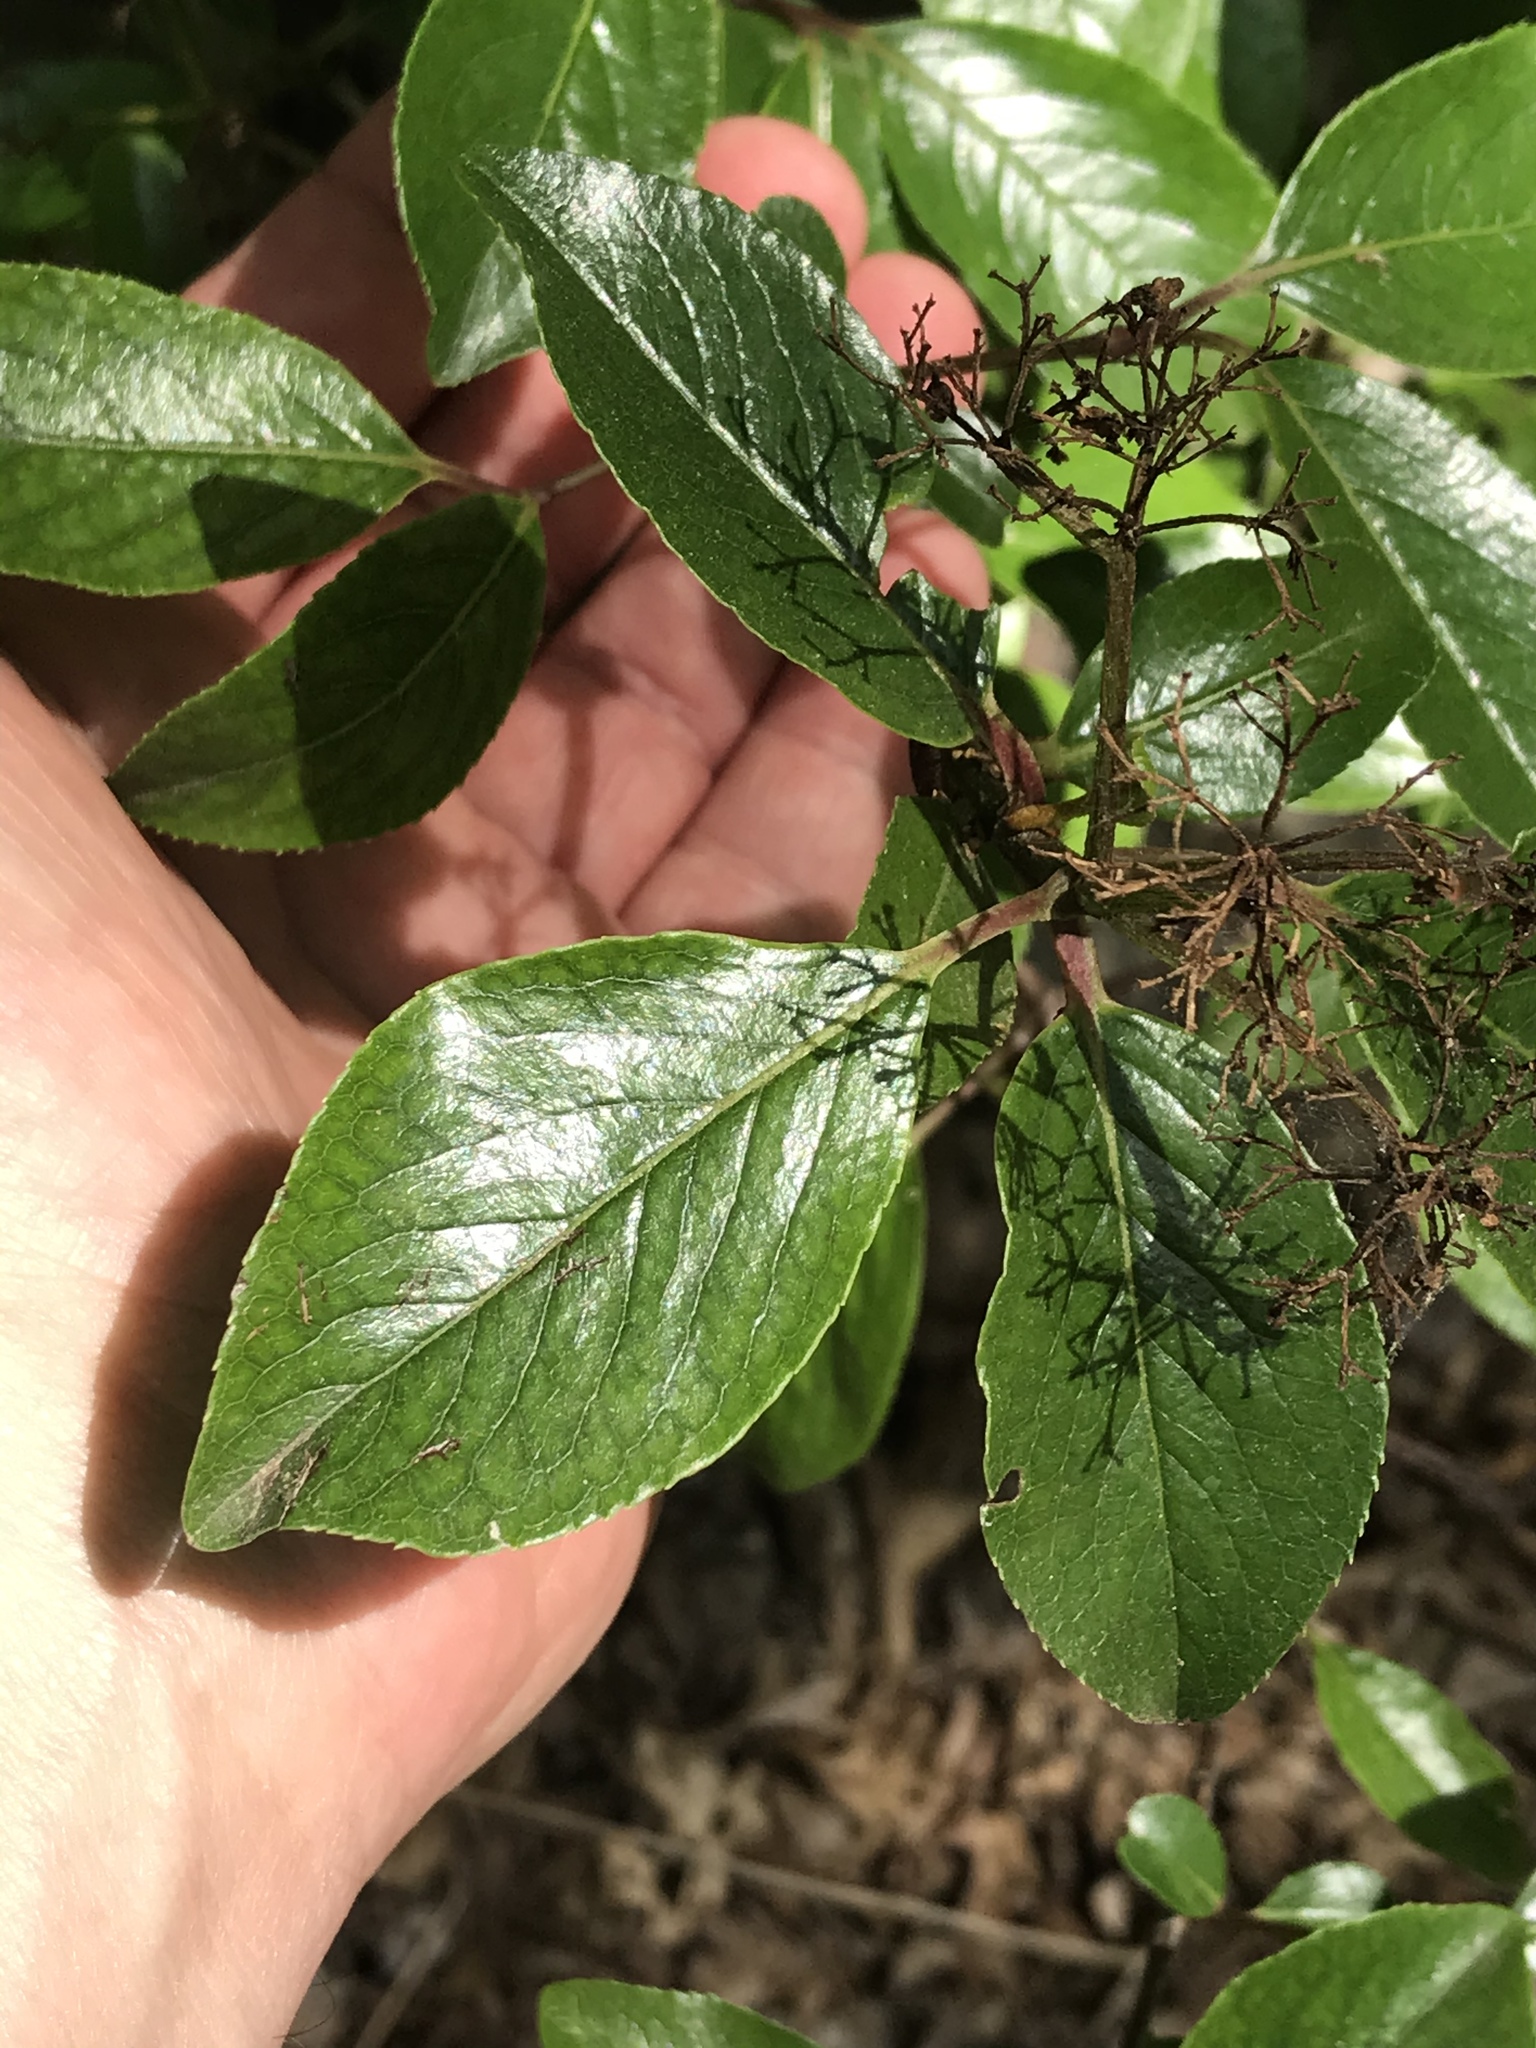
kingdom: Plantae
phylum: Tracheophyta
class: Magnoliopsida
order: Dipsacales
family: Viburnaceae
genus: Viburnum
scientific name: Viburnum rufidulum
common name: Blue haw
